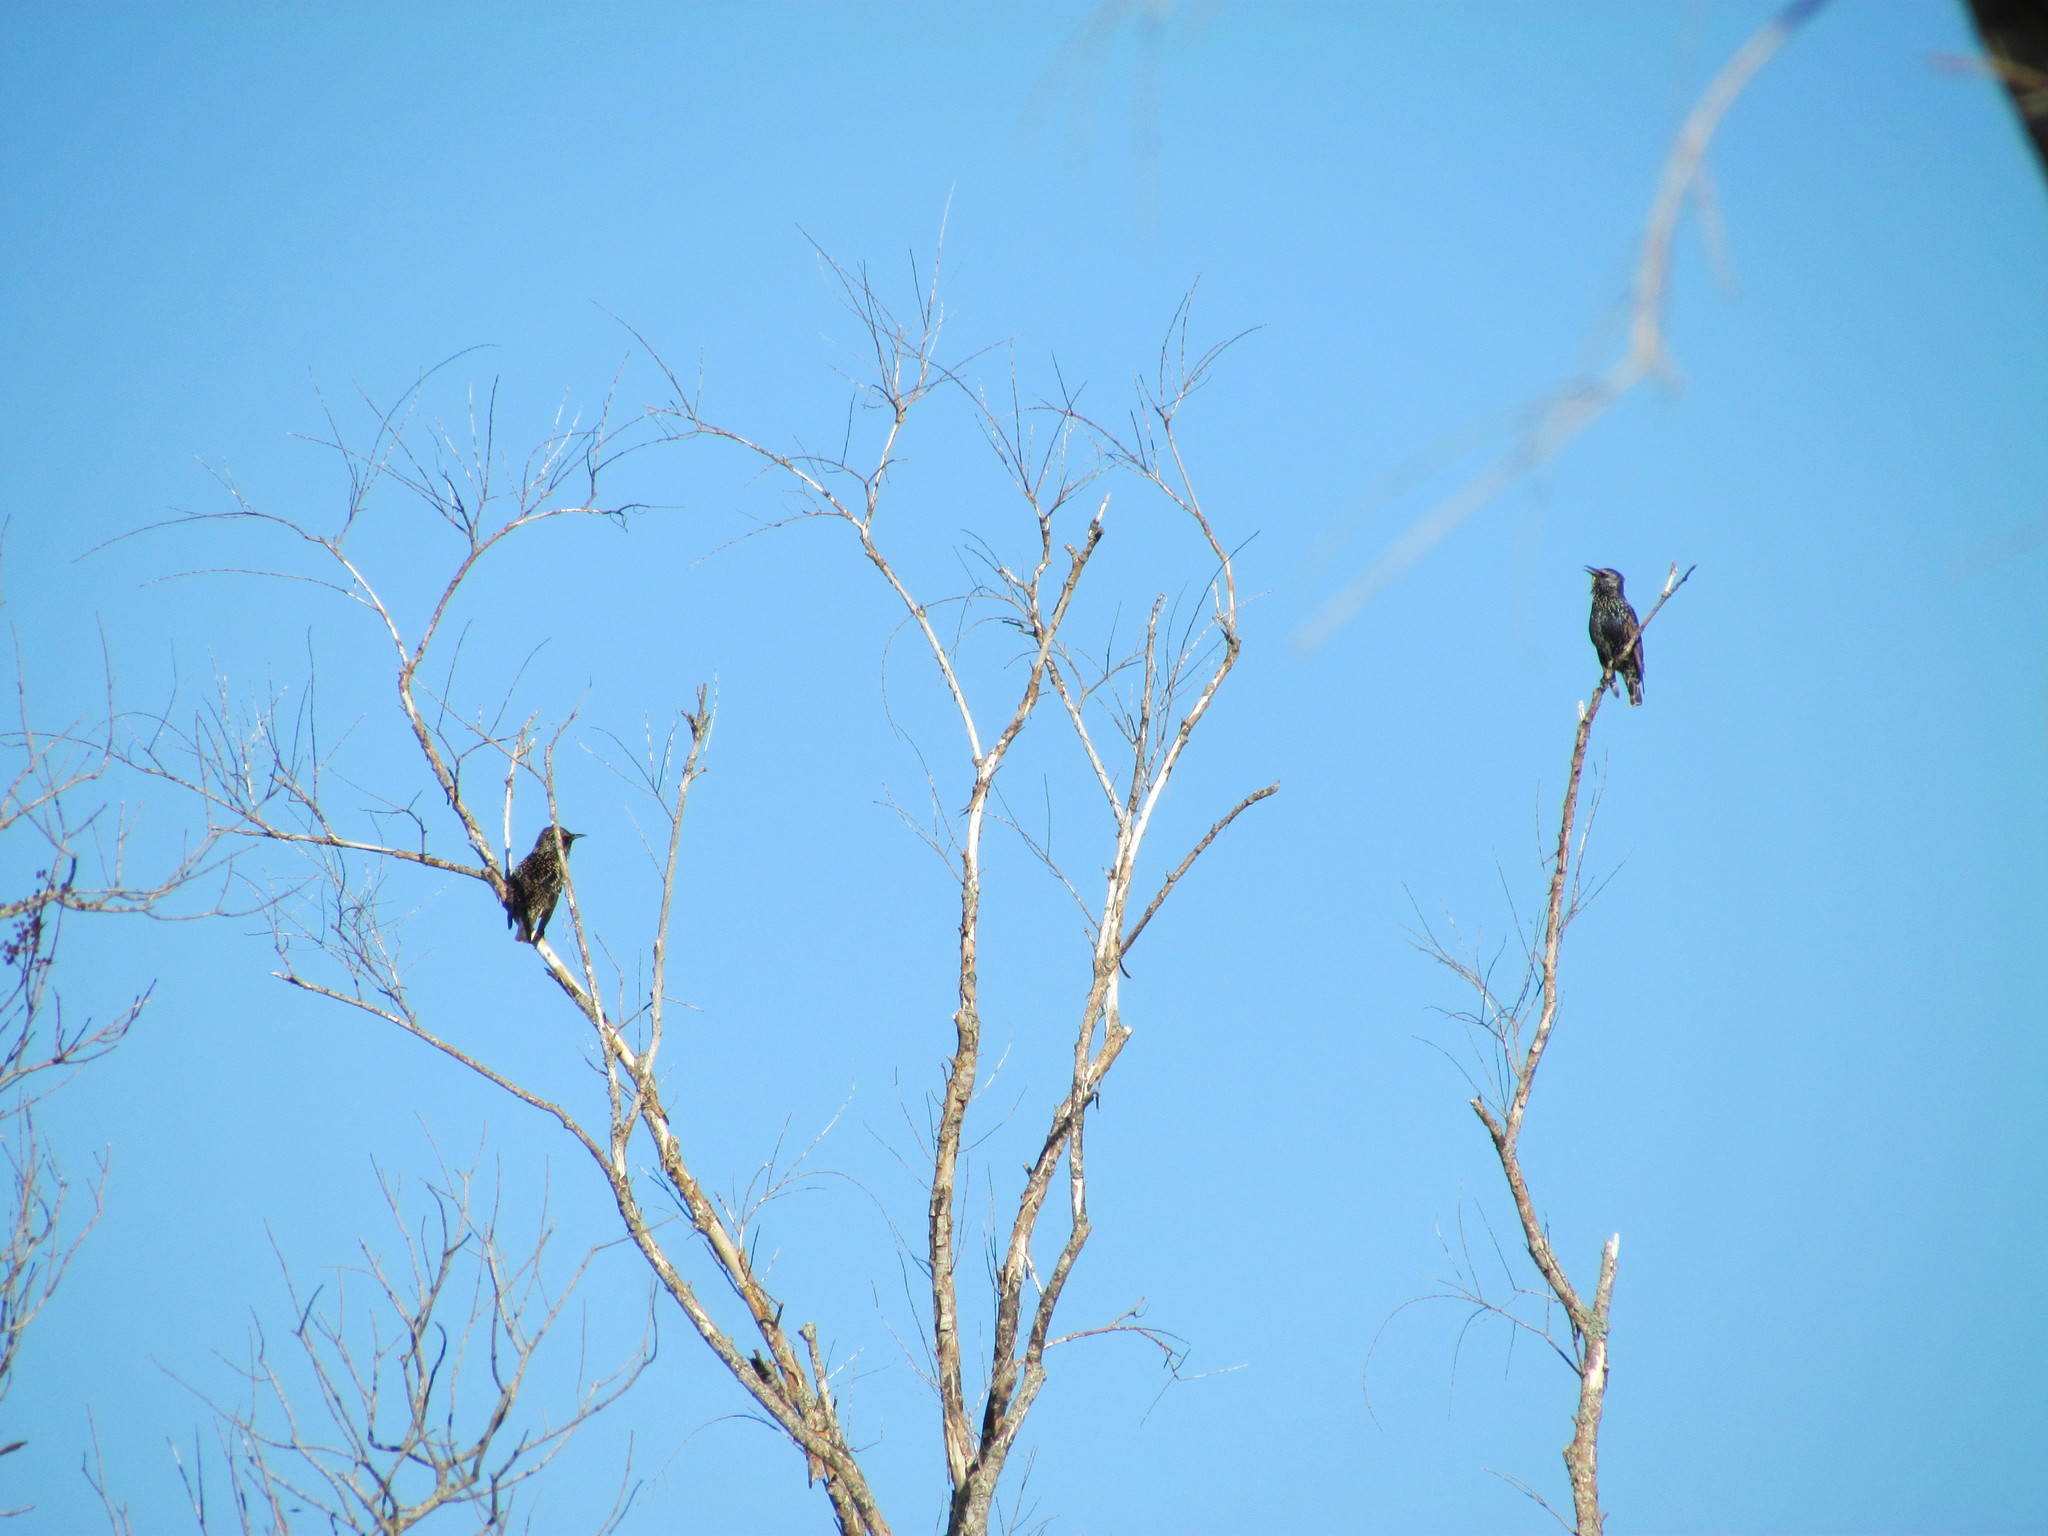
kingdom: Animalia
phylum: Chordata
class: Aves
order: Passeriformes
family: Sturnidae
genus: Sturnus
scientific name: Sturnus vulgaris
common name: Common starling
